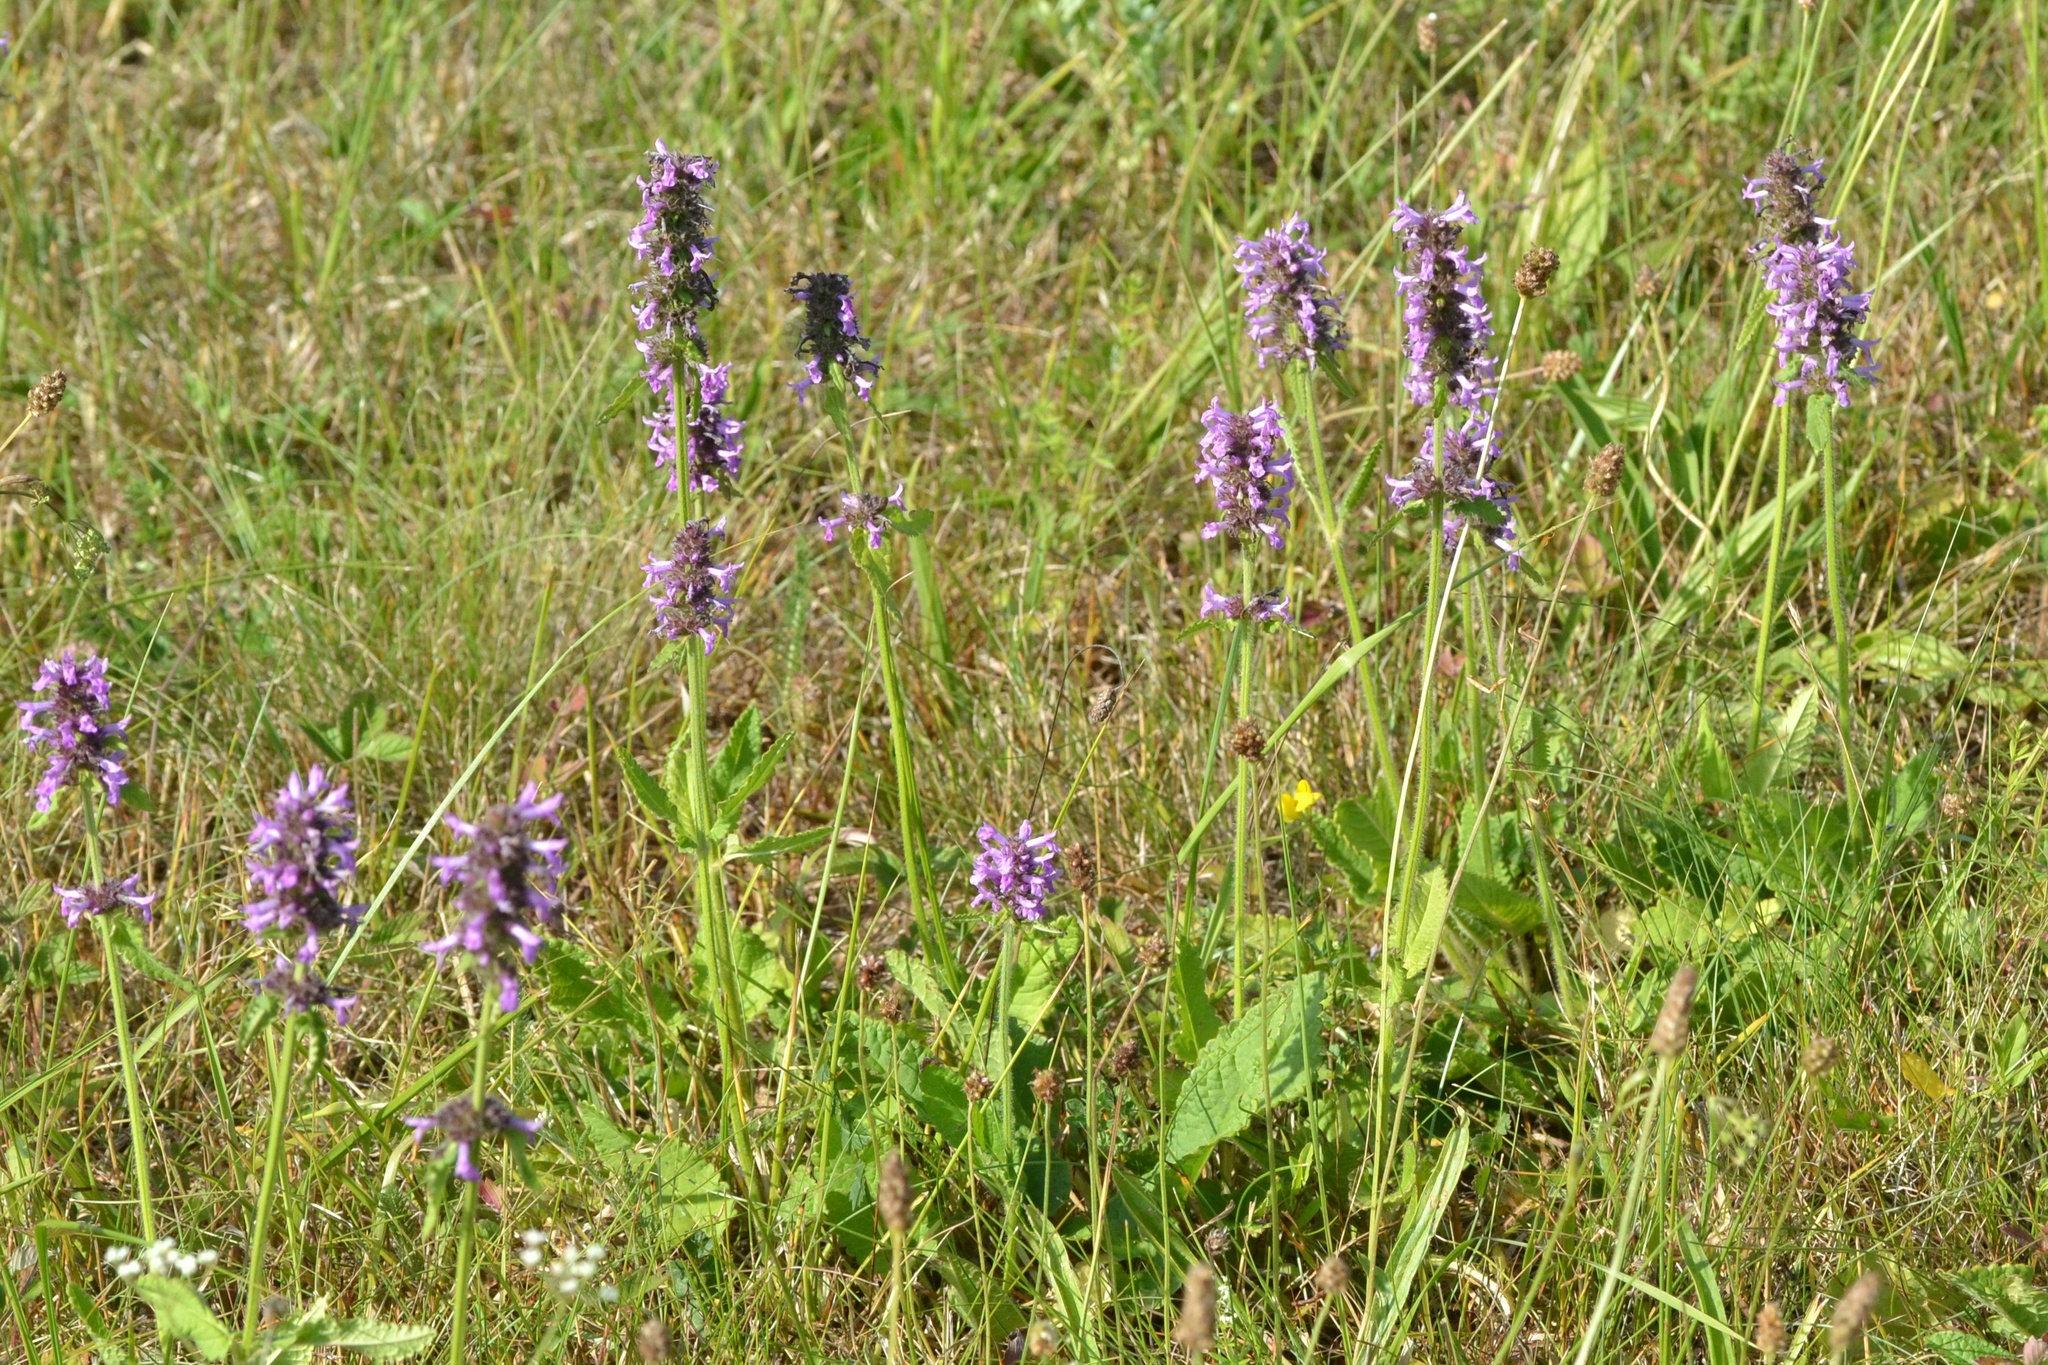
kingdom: Plantae
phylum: Tracheophyta
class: Magnoliopsida
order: Lamiales
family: Lamiaceae
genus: Betonica
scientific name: Betonica officinalis
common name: Bishop's-wort
